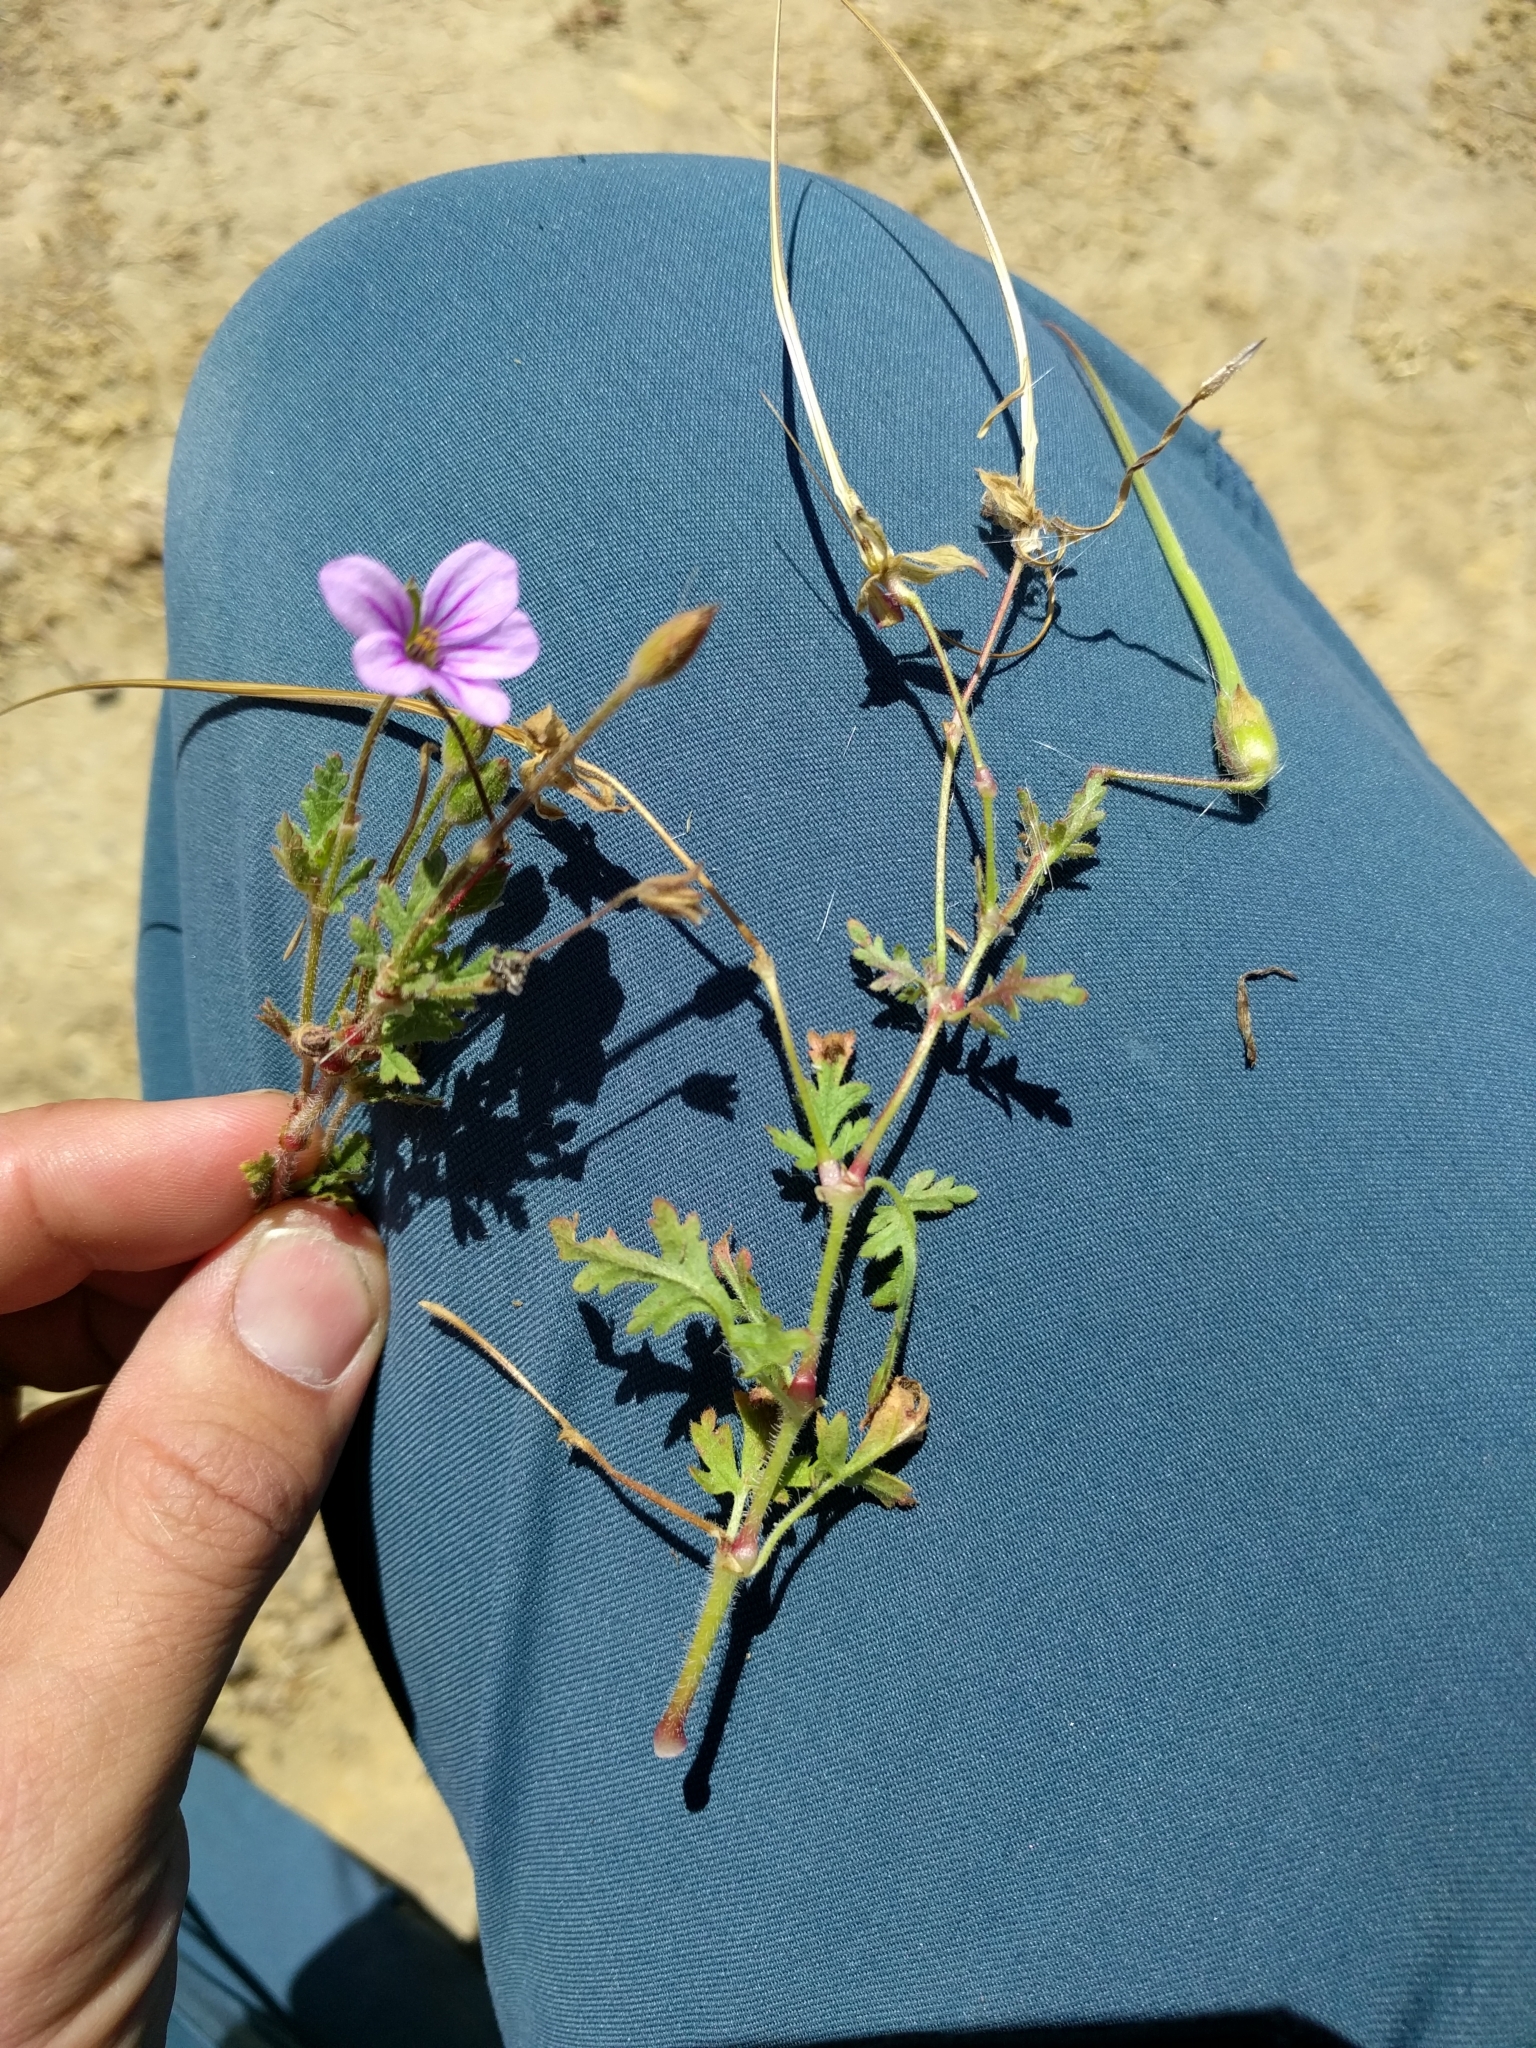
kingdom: Plantae
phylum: Tracheophyta
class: Magnoliopsida
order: Geraniales
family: Geraniaceae
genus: Erodium
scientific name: Erodium botrys
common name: Mediterranean stork's-bill
